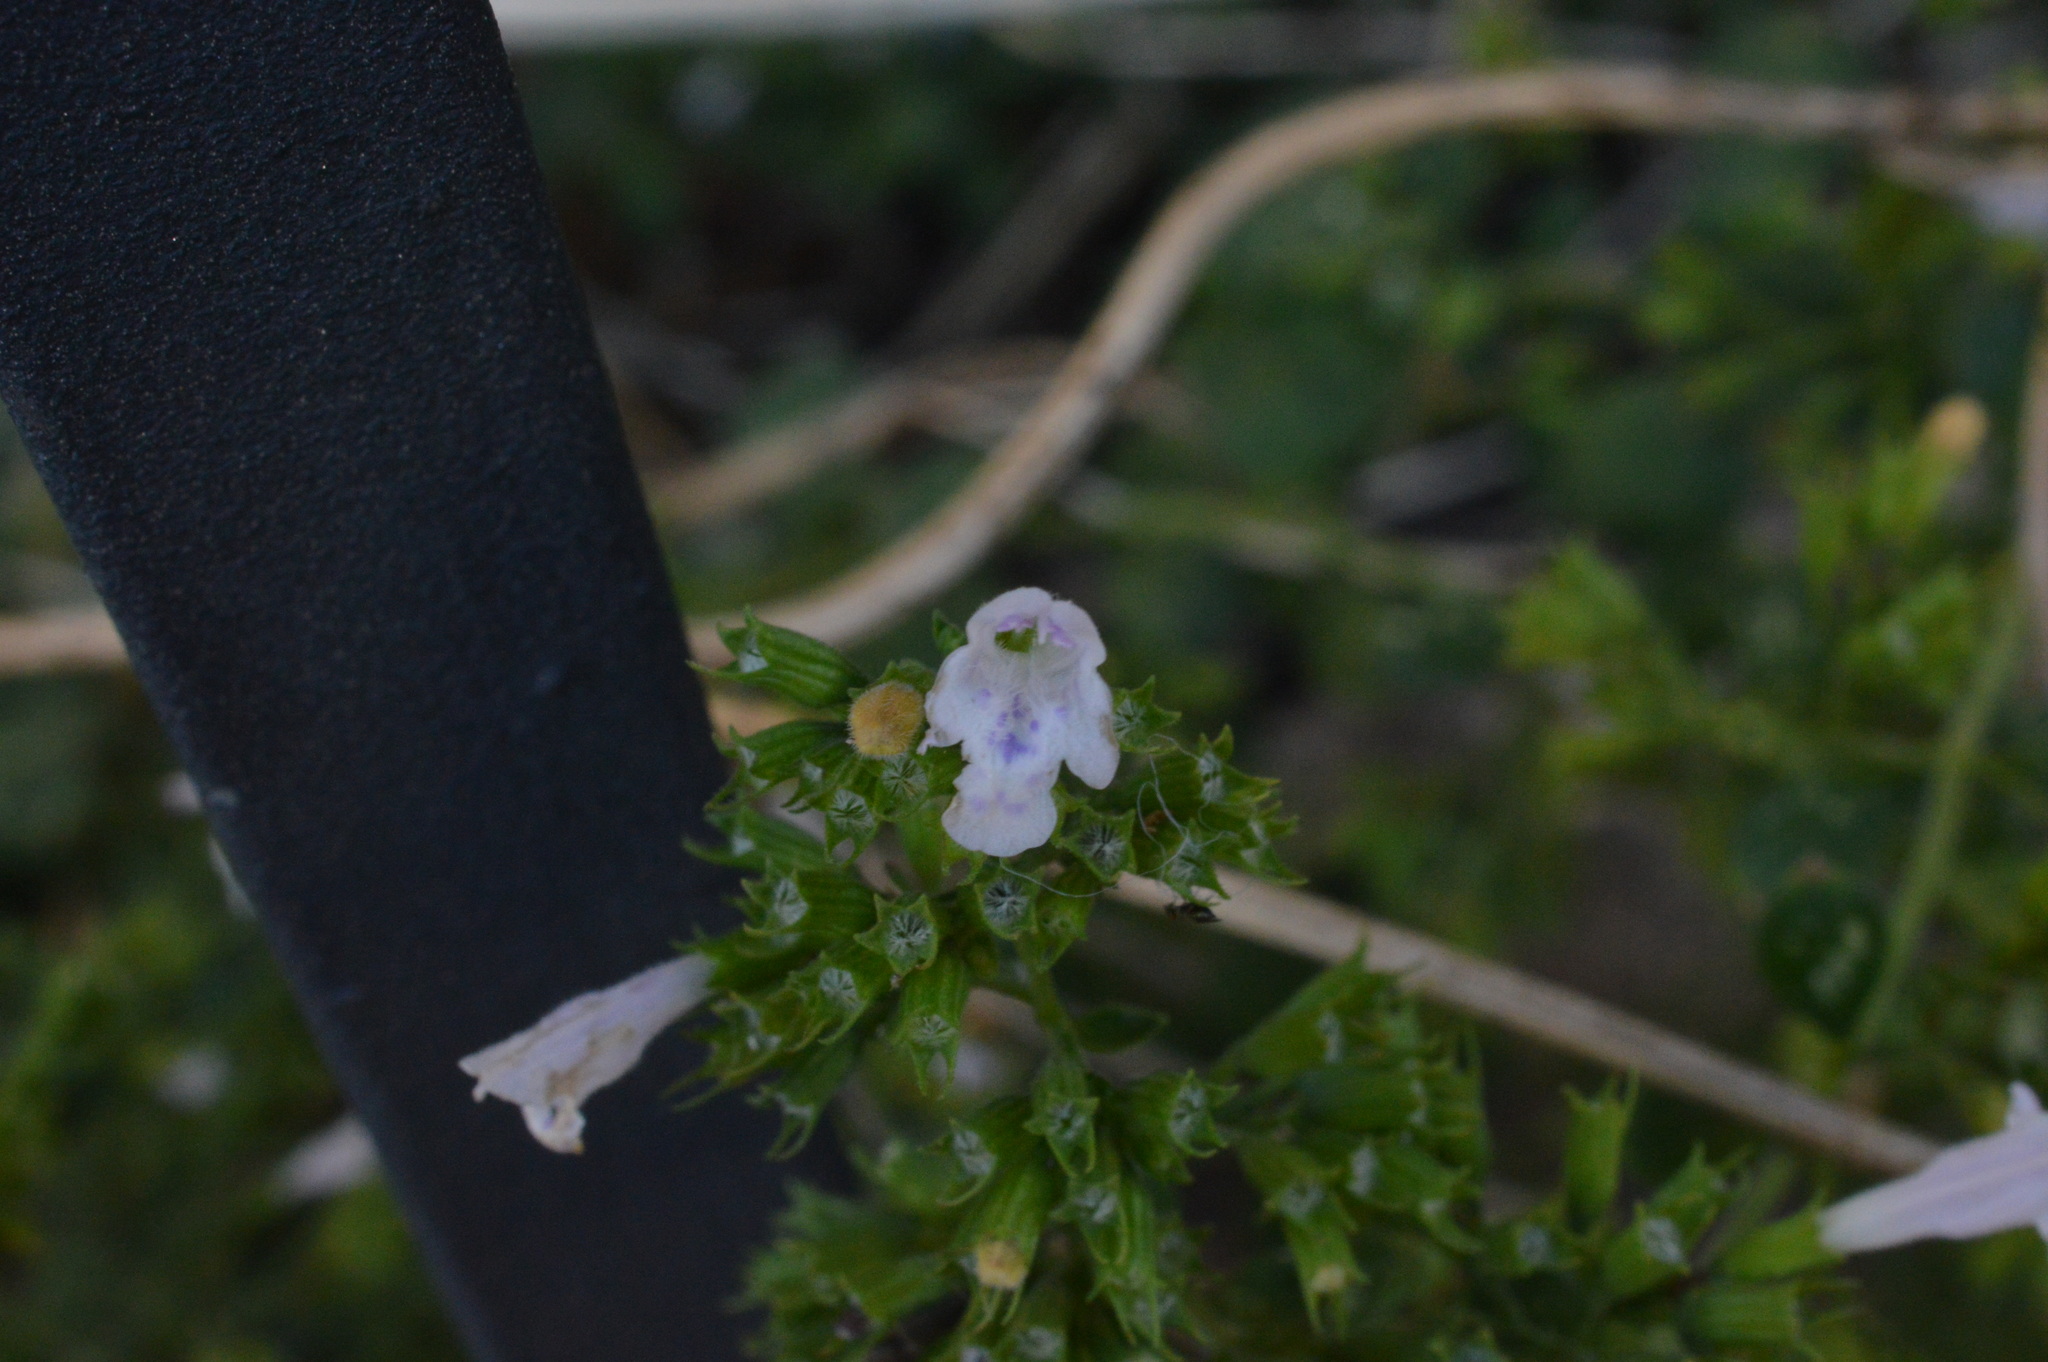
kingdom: Plantae
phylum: Tracheophyta
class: Magnoliopsida
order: Lamiales
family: Lamiaceae
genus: Clinopodium
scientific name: Clinopodium nepeta
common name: Lesser calamint
